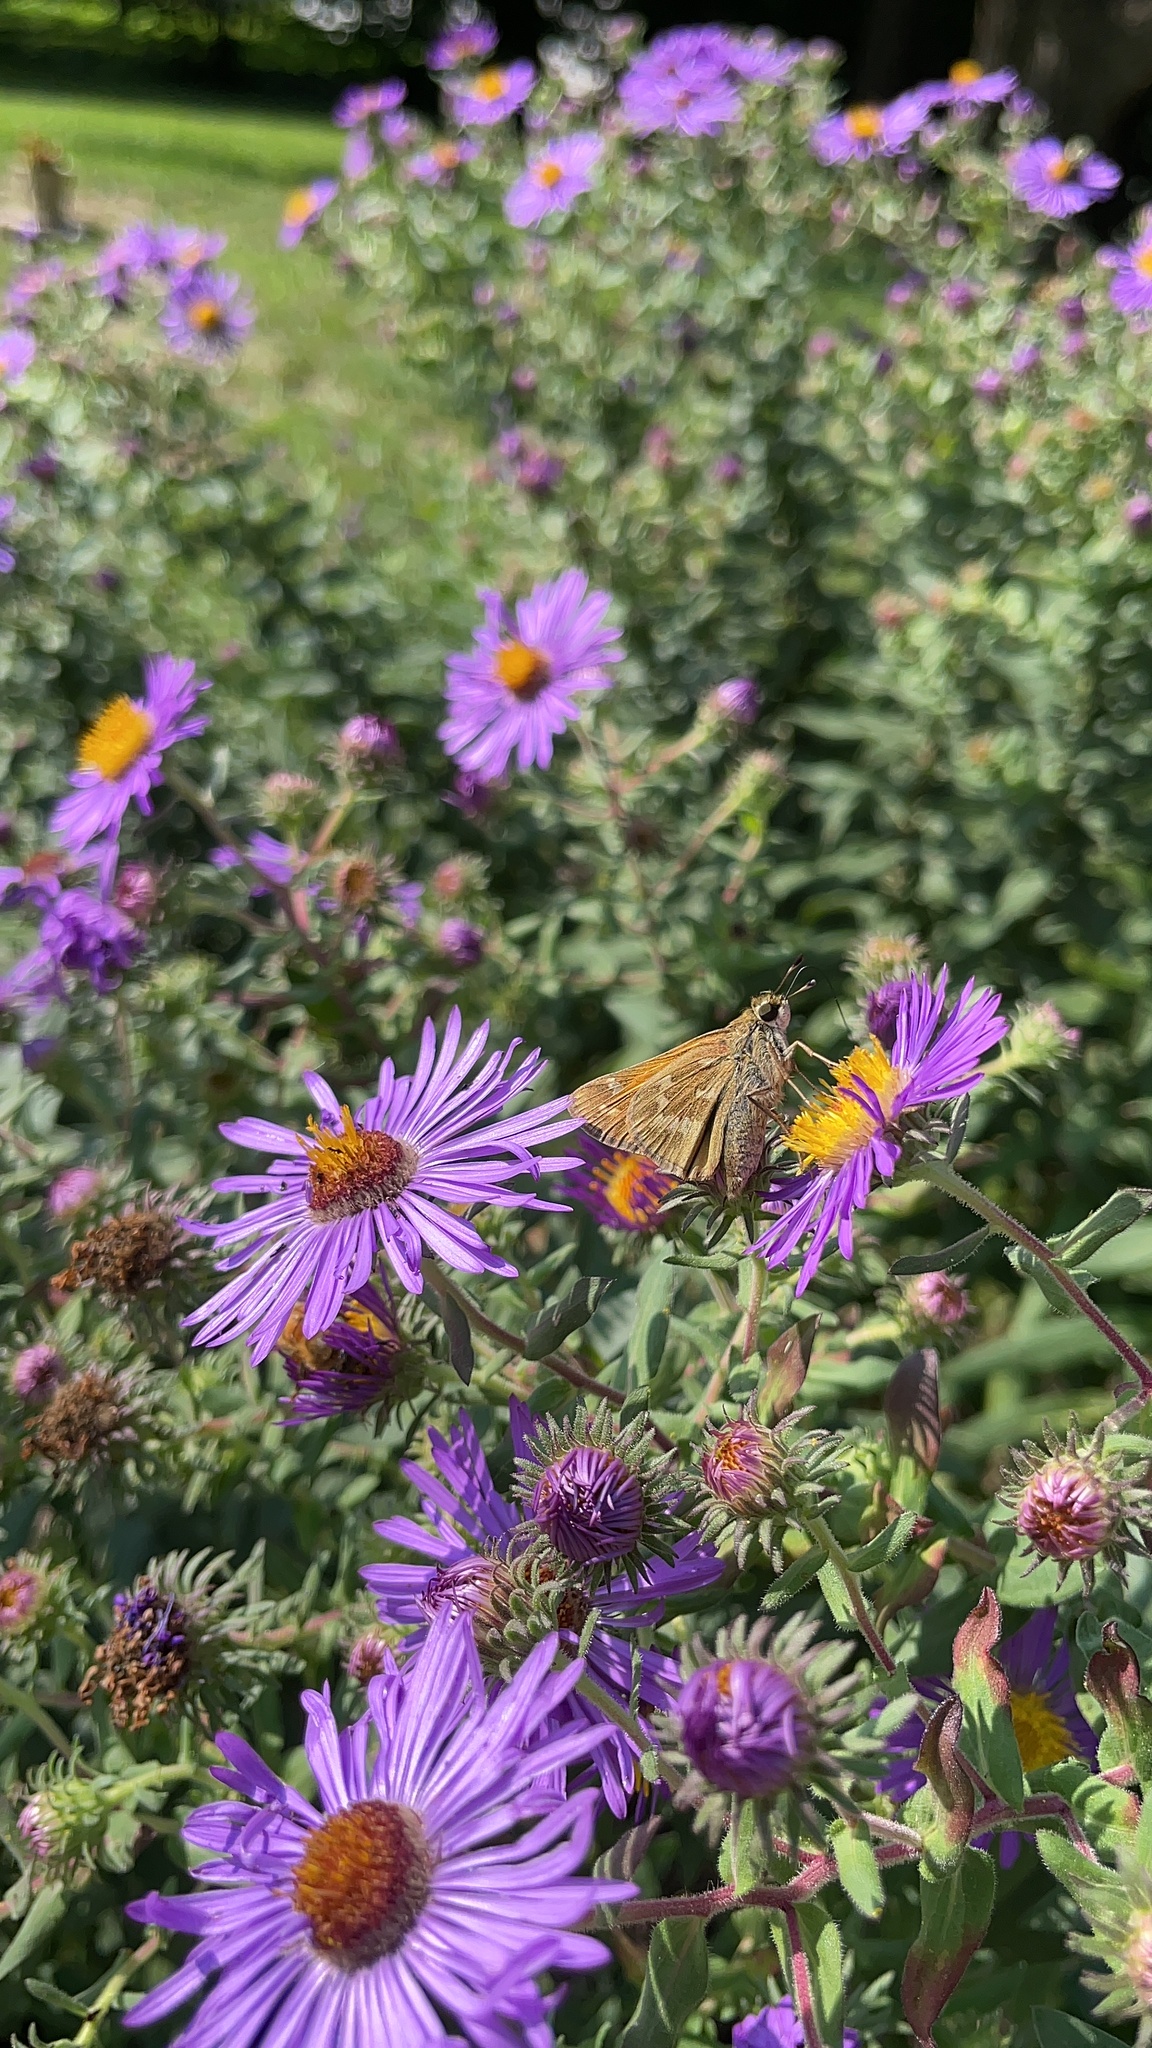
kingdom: Animalia
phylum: Arthropoda
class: Insecta
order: Lepidoptera
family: Hesperiidae
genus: Atalopedes
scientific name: Atalopedes
